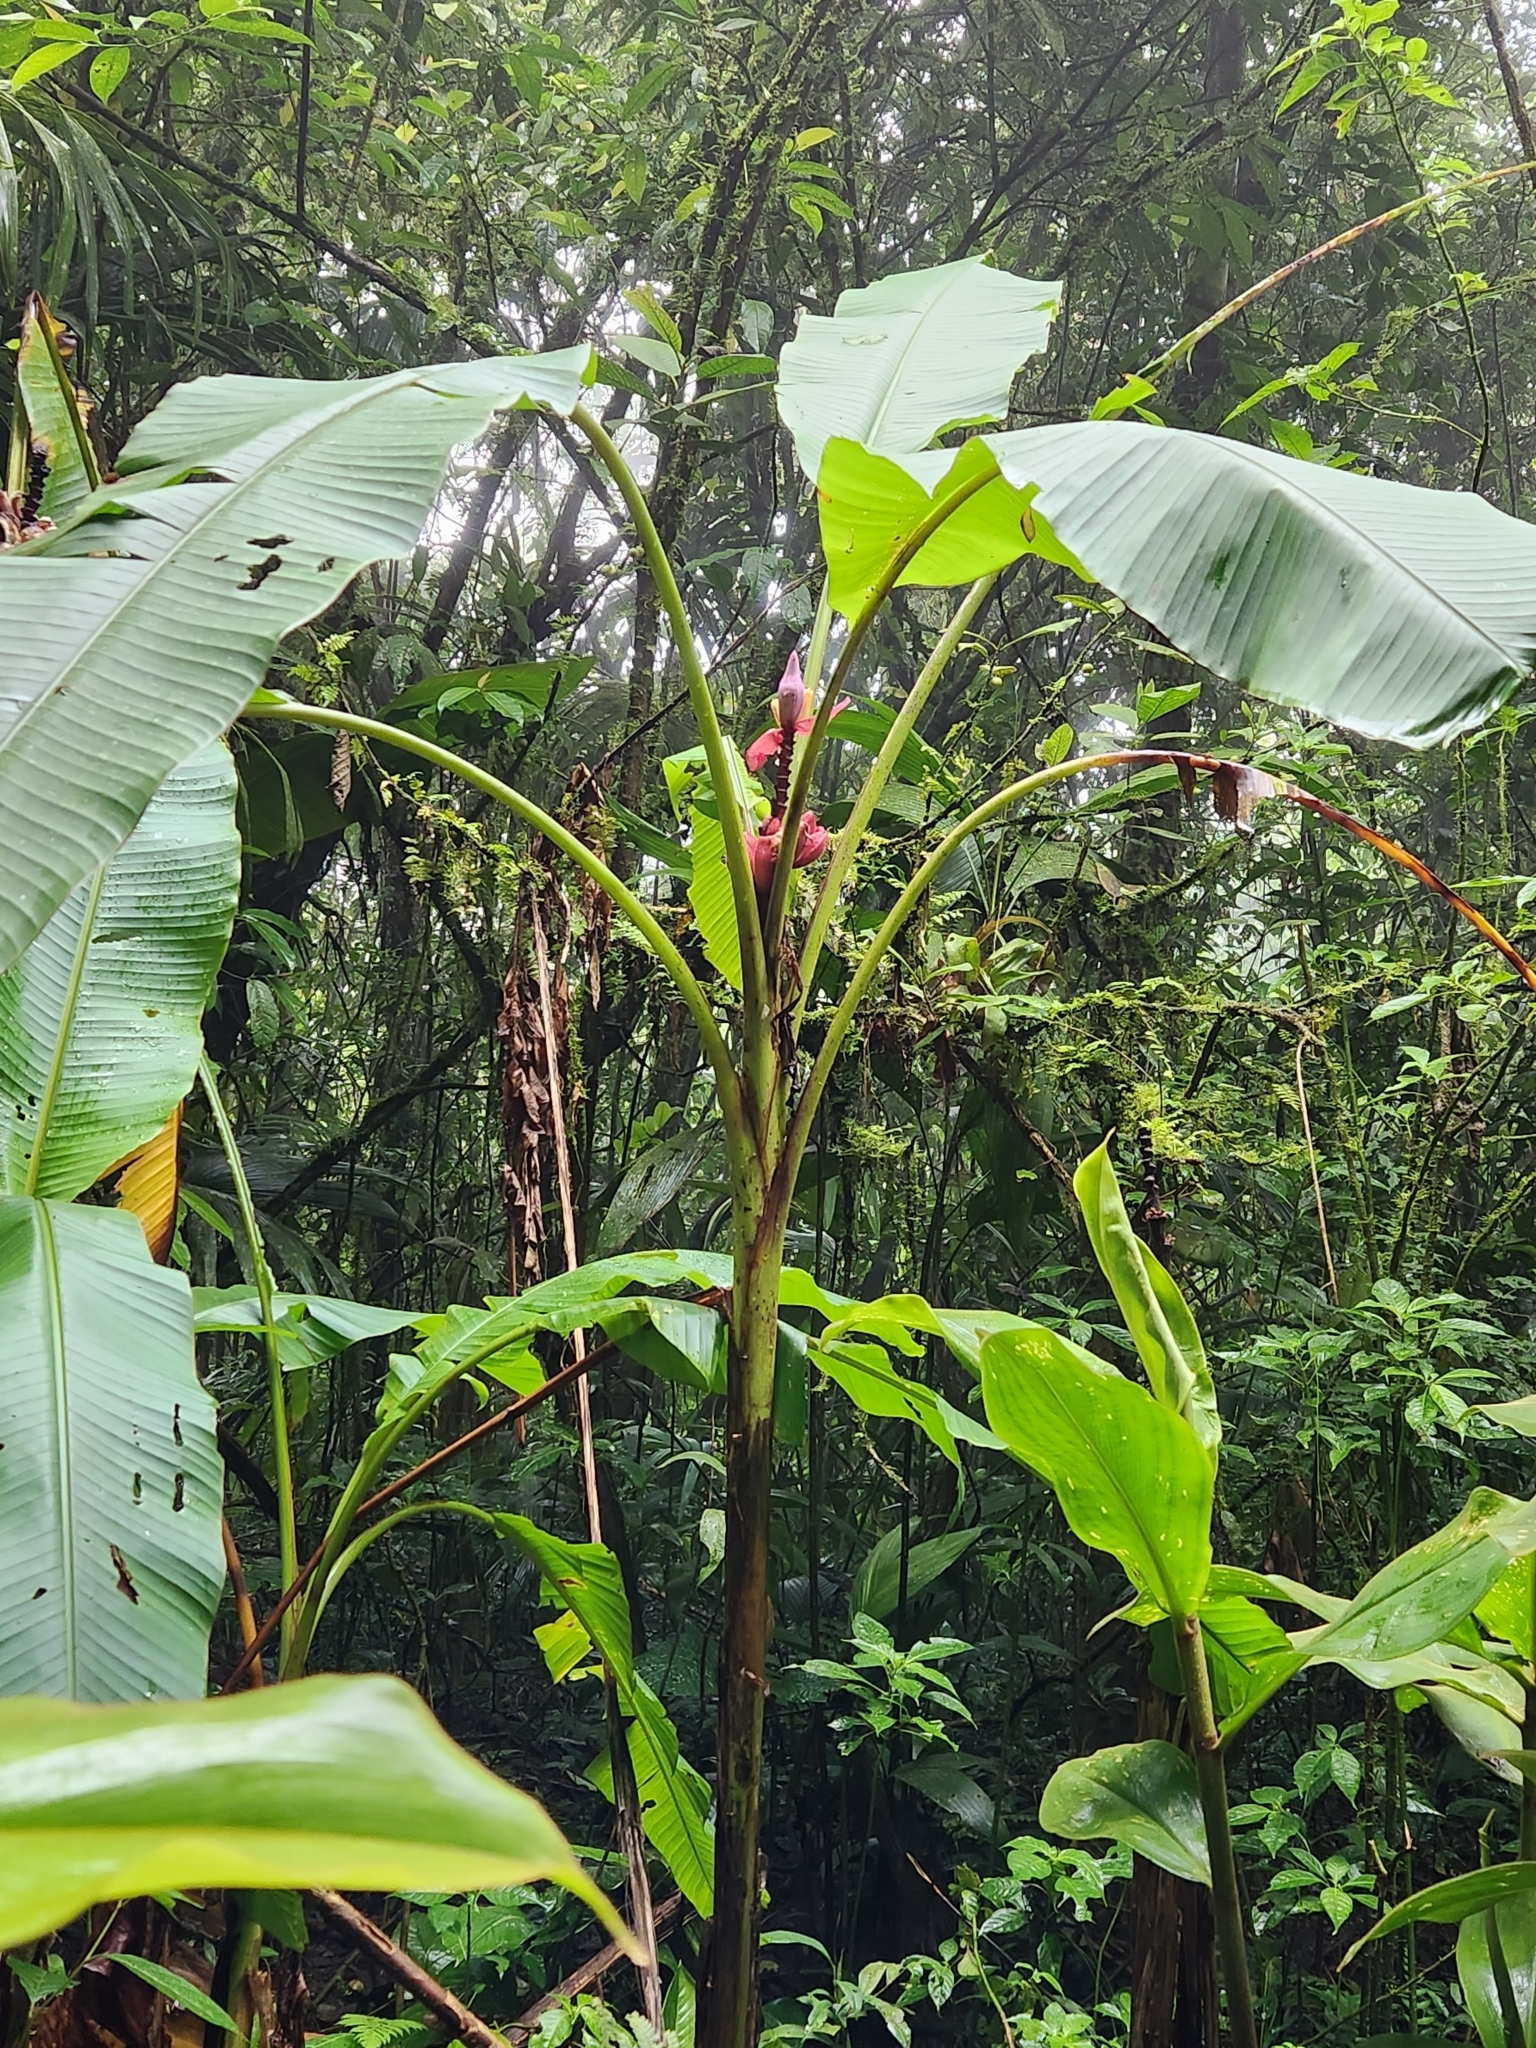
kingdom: Plantae
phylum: Tracheophyta
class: Liliopsida
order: Zingiberales
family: Musaceae
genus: Musa
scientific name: Musa velutina
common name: Pink velvet banana
